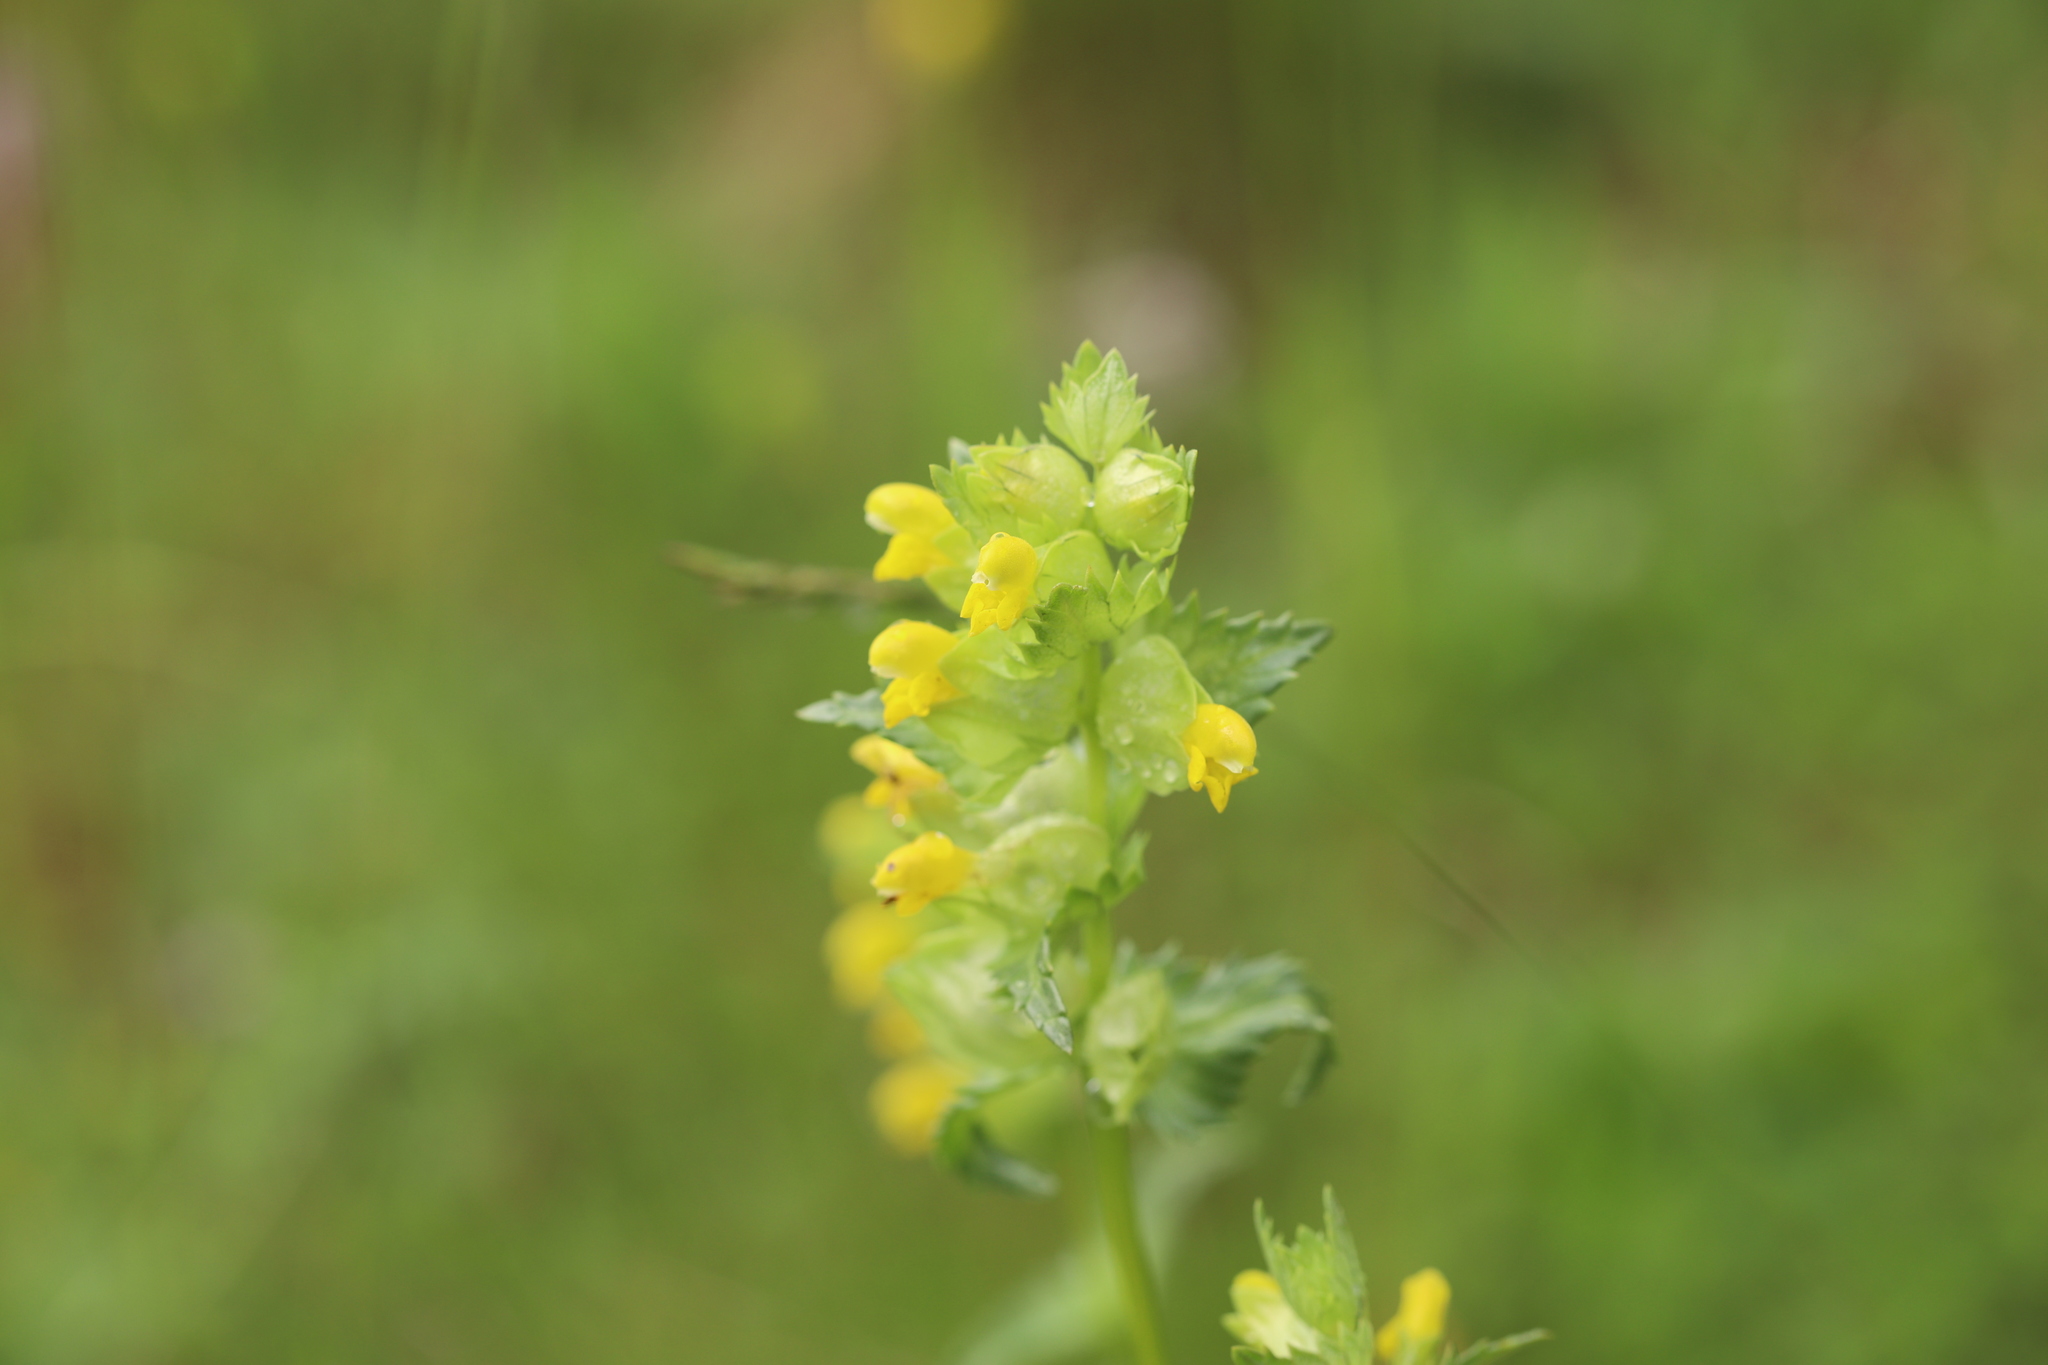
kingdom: Plantae
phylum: Tracheophyta
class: Magnoliopsida
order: Lamiales
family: Orobanchaceae
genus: Rhinanthus
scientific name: Rhinanthus minor
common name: Yellow-rattle
